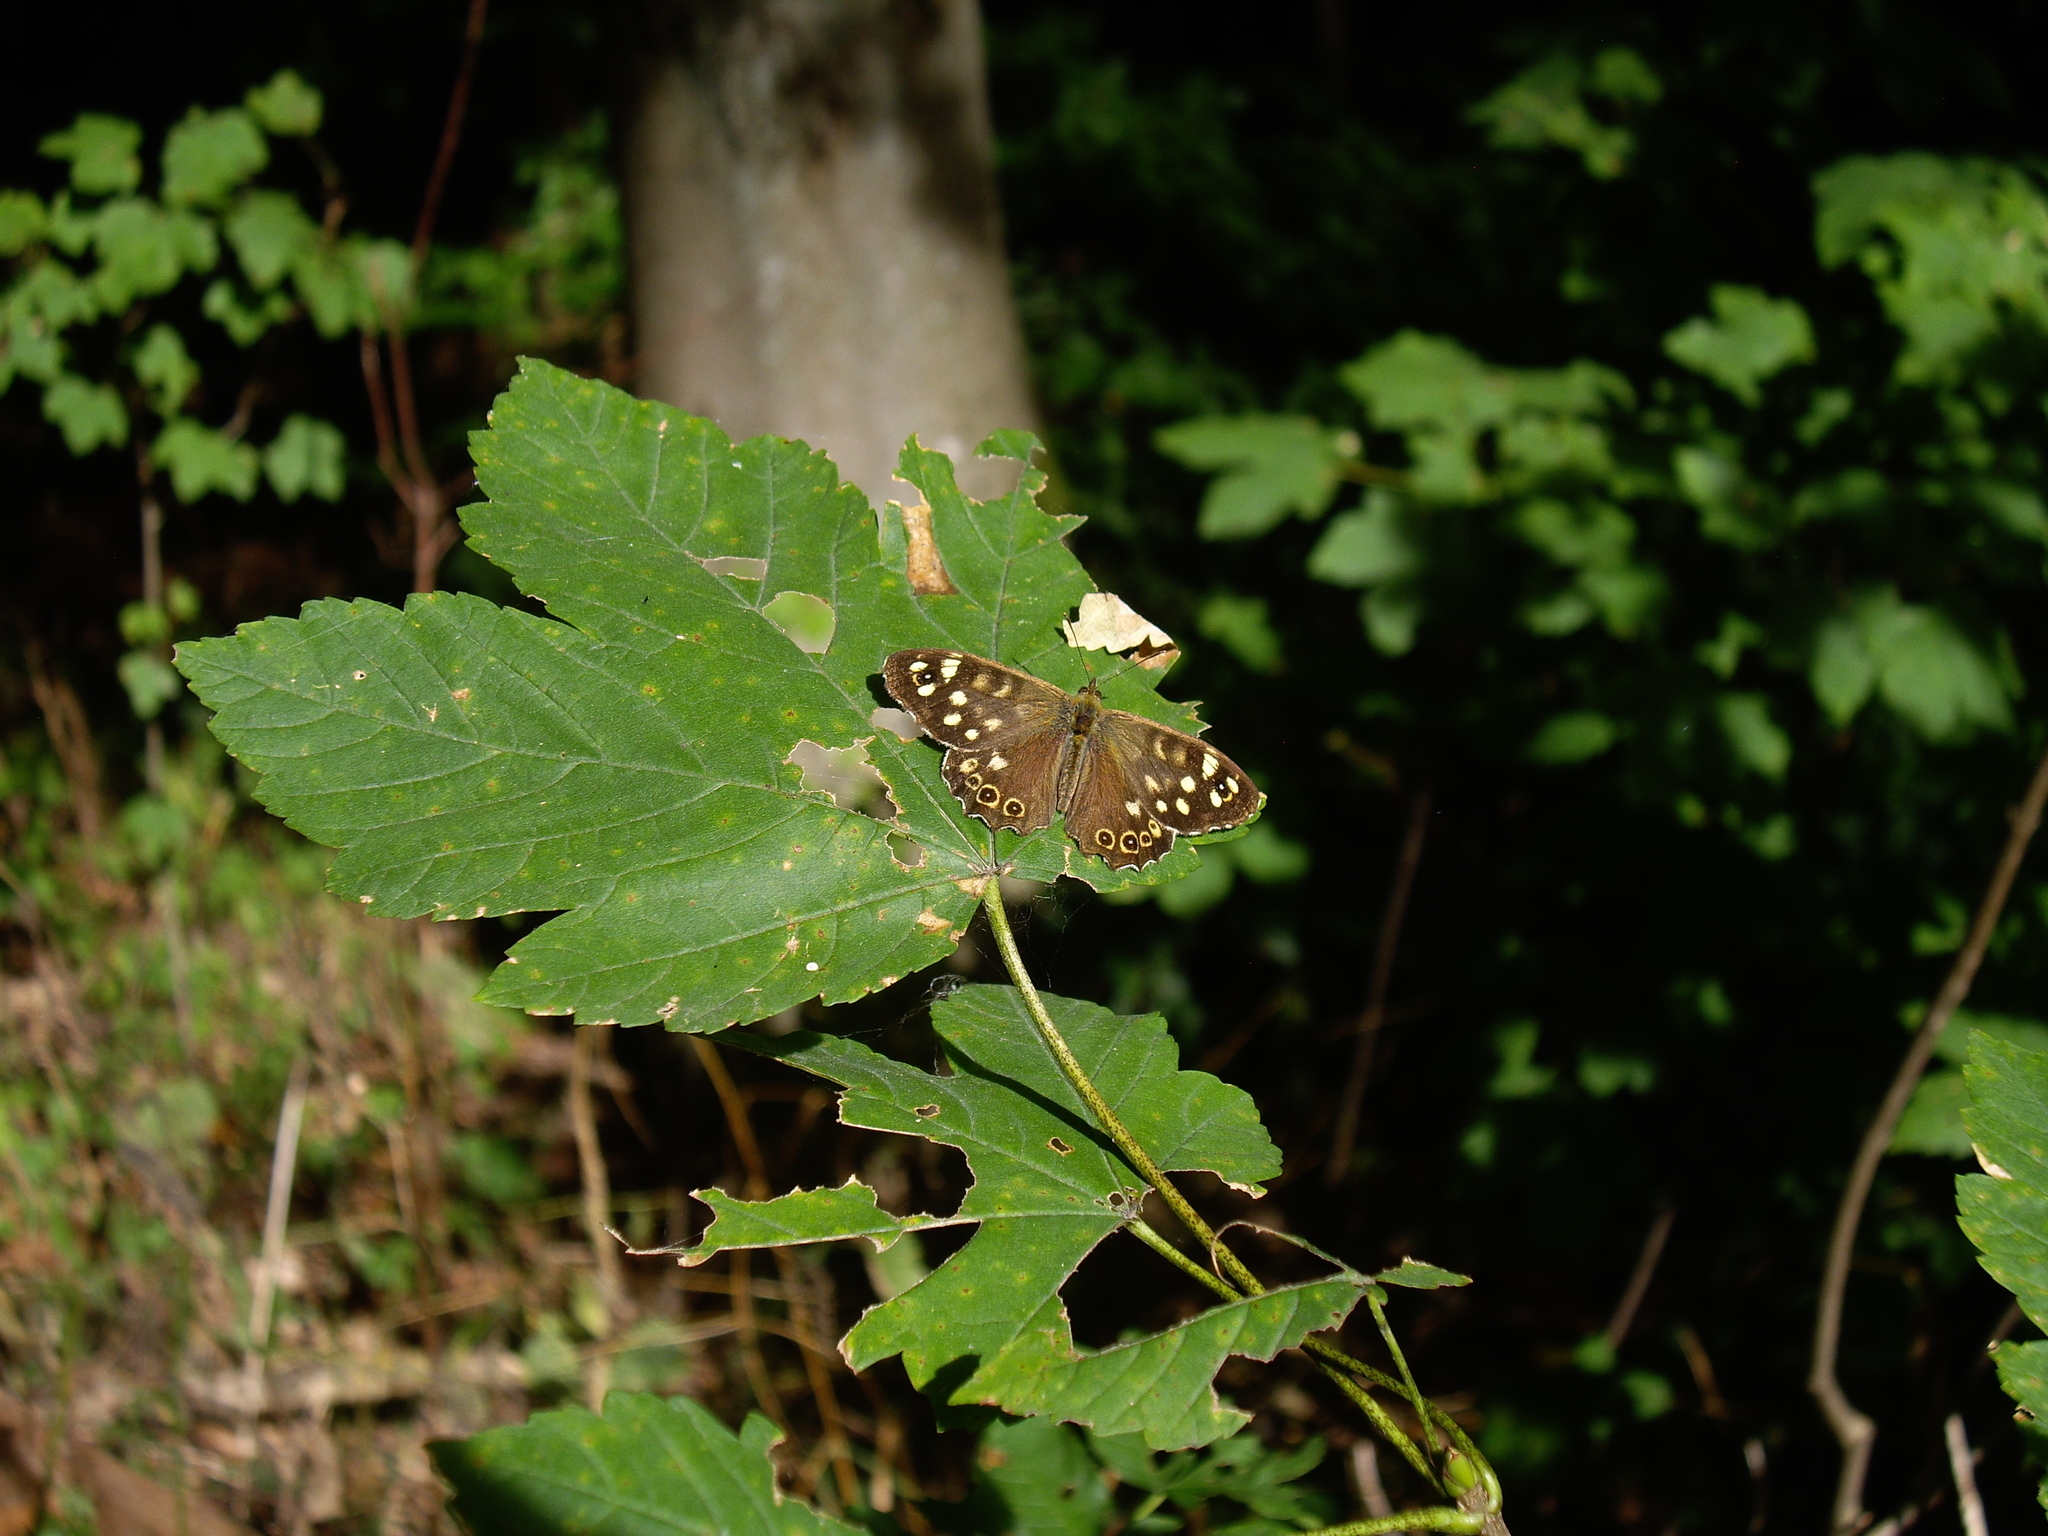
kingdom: Animalia
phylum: Arthropoda
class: Insecta
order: Lepidoptera
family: Nymphalidae
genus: Pararge
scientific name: Pararge aegeria
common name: Speckled wood
